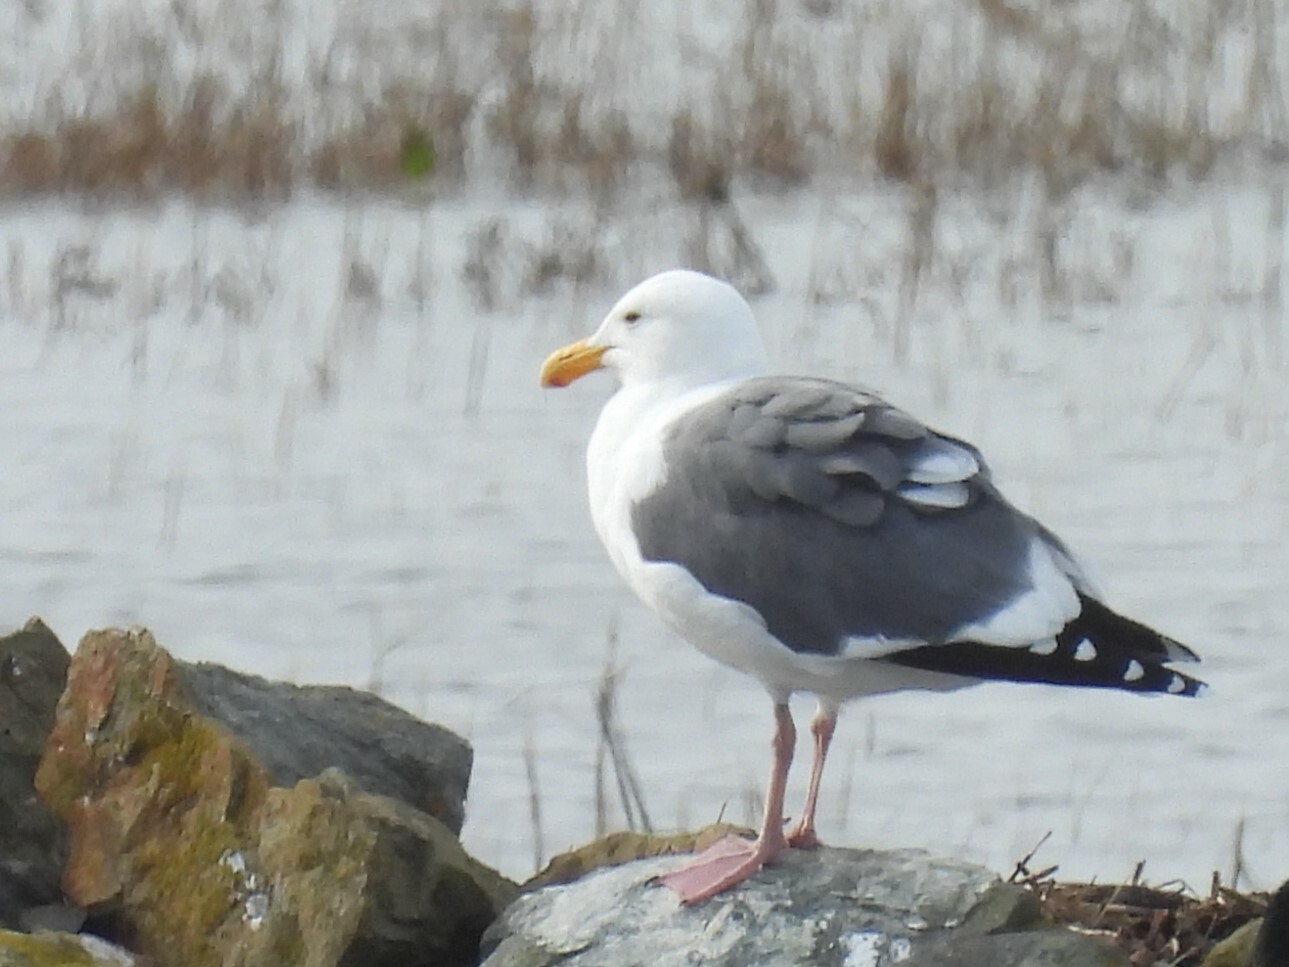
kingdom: Animalia
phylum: Chordata
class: Aves
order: Charadriiformes
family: Laridae
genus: Larus
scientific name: Larus occidentalis
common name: Western gull
